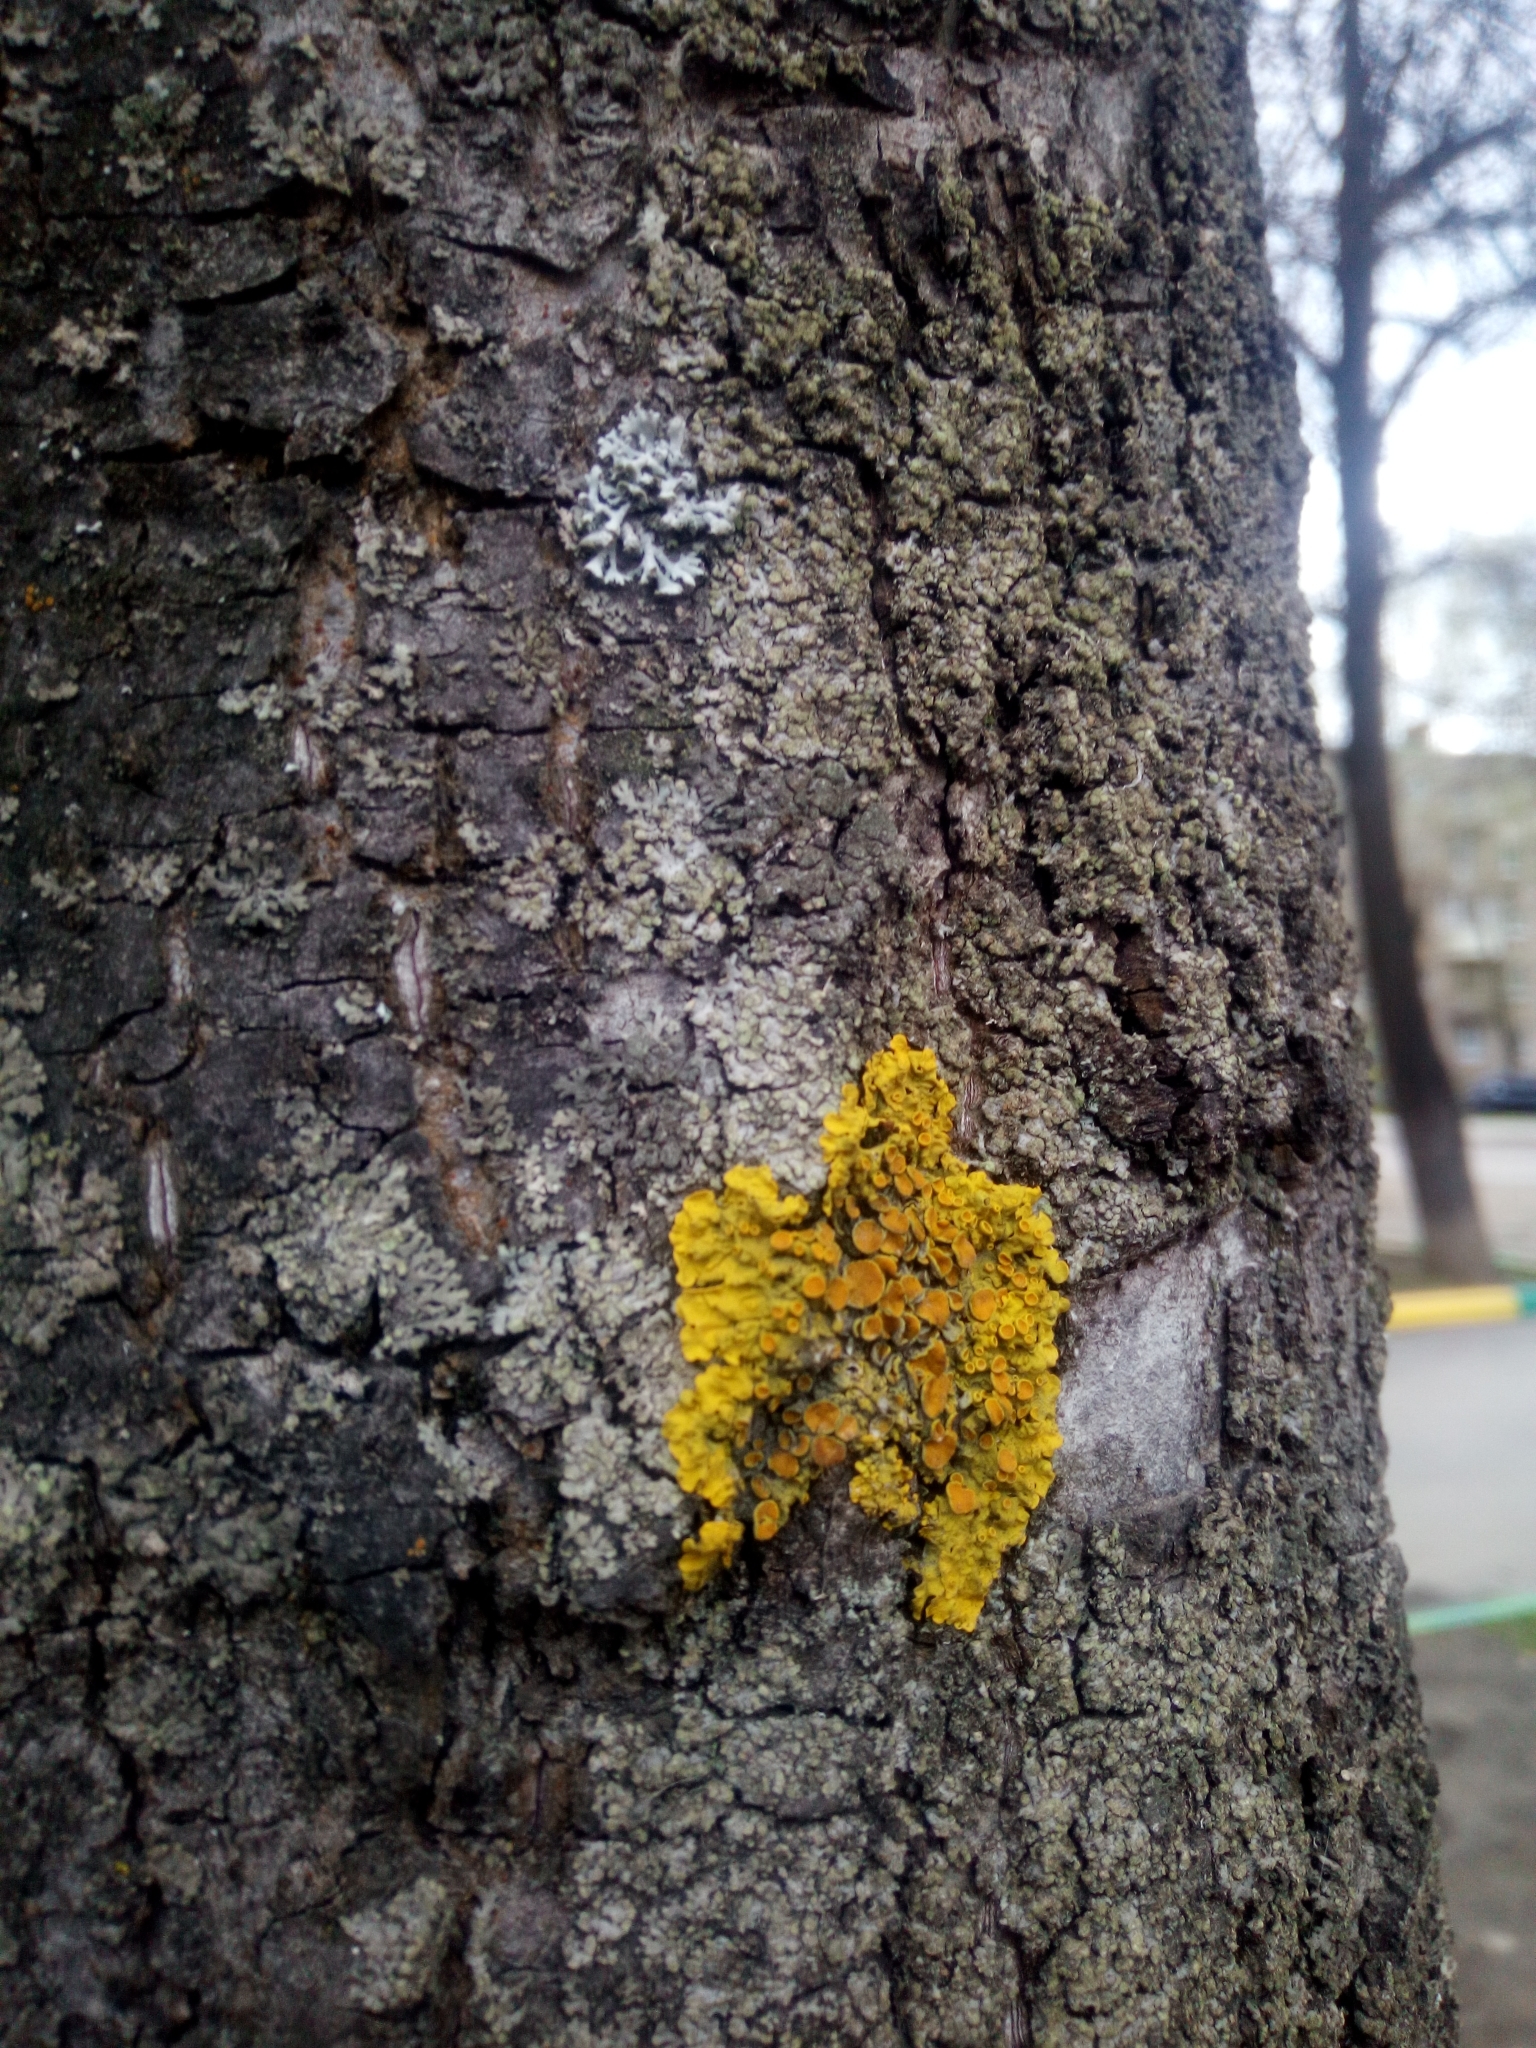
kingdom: Fungi
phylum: Ascomycota
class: Lecanoromycetes
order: Teloschistales
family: Teloschistaceae
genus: Xanthoria
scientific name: Xanthoria parietina
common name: Common orange lichen
